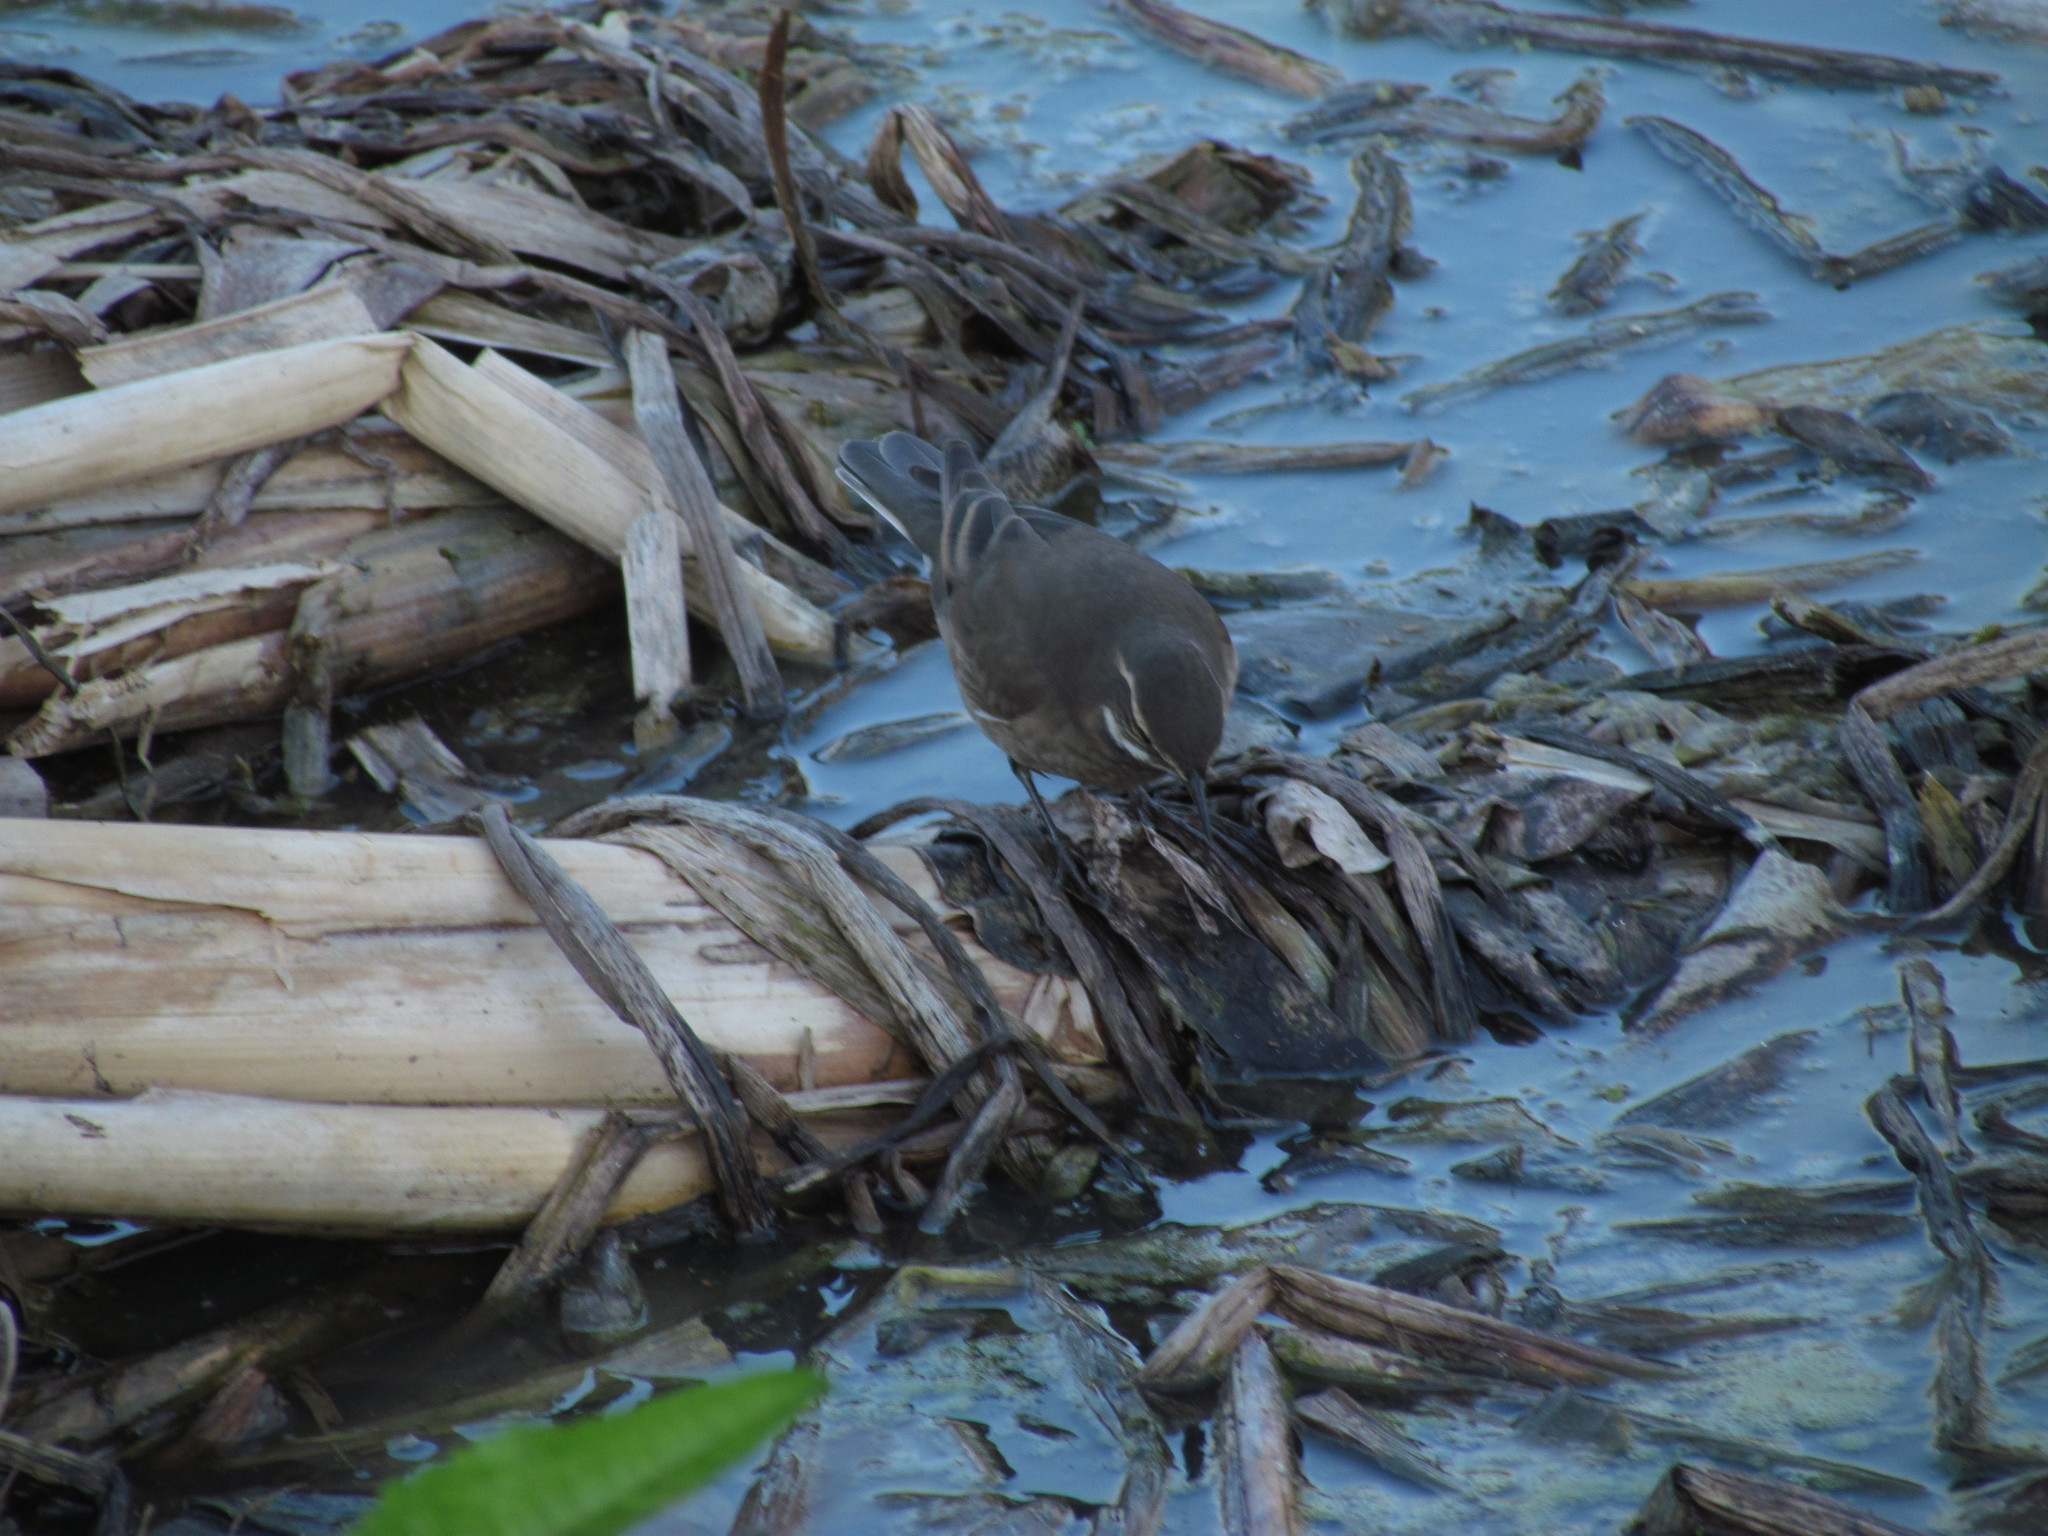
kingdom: Animalia
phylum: Chordata
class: Aves
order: Passeriformes
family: Furnariidae
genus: Cinclodes
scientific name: Cinclodes fuscus
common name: Buff-winged cinclodes
